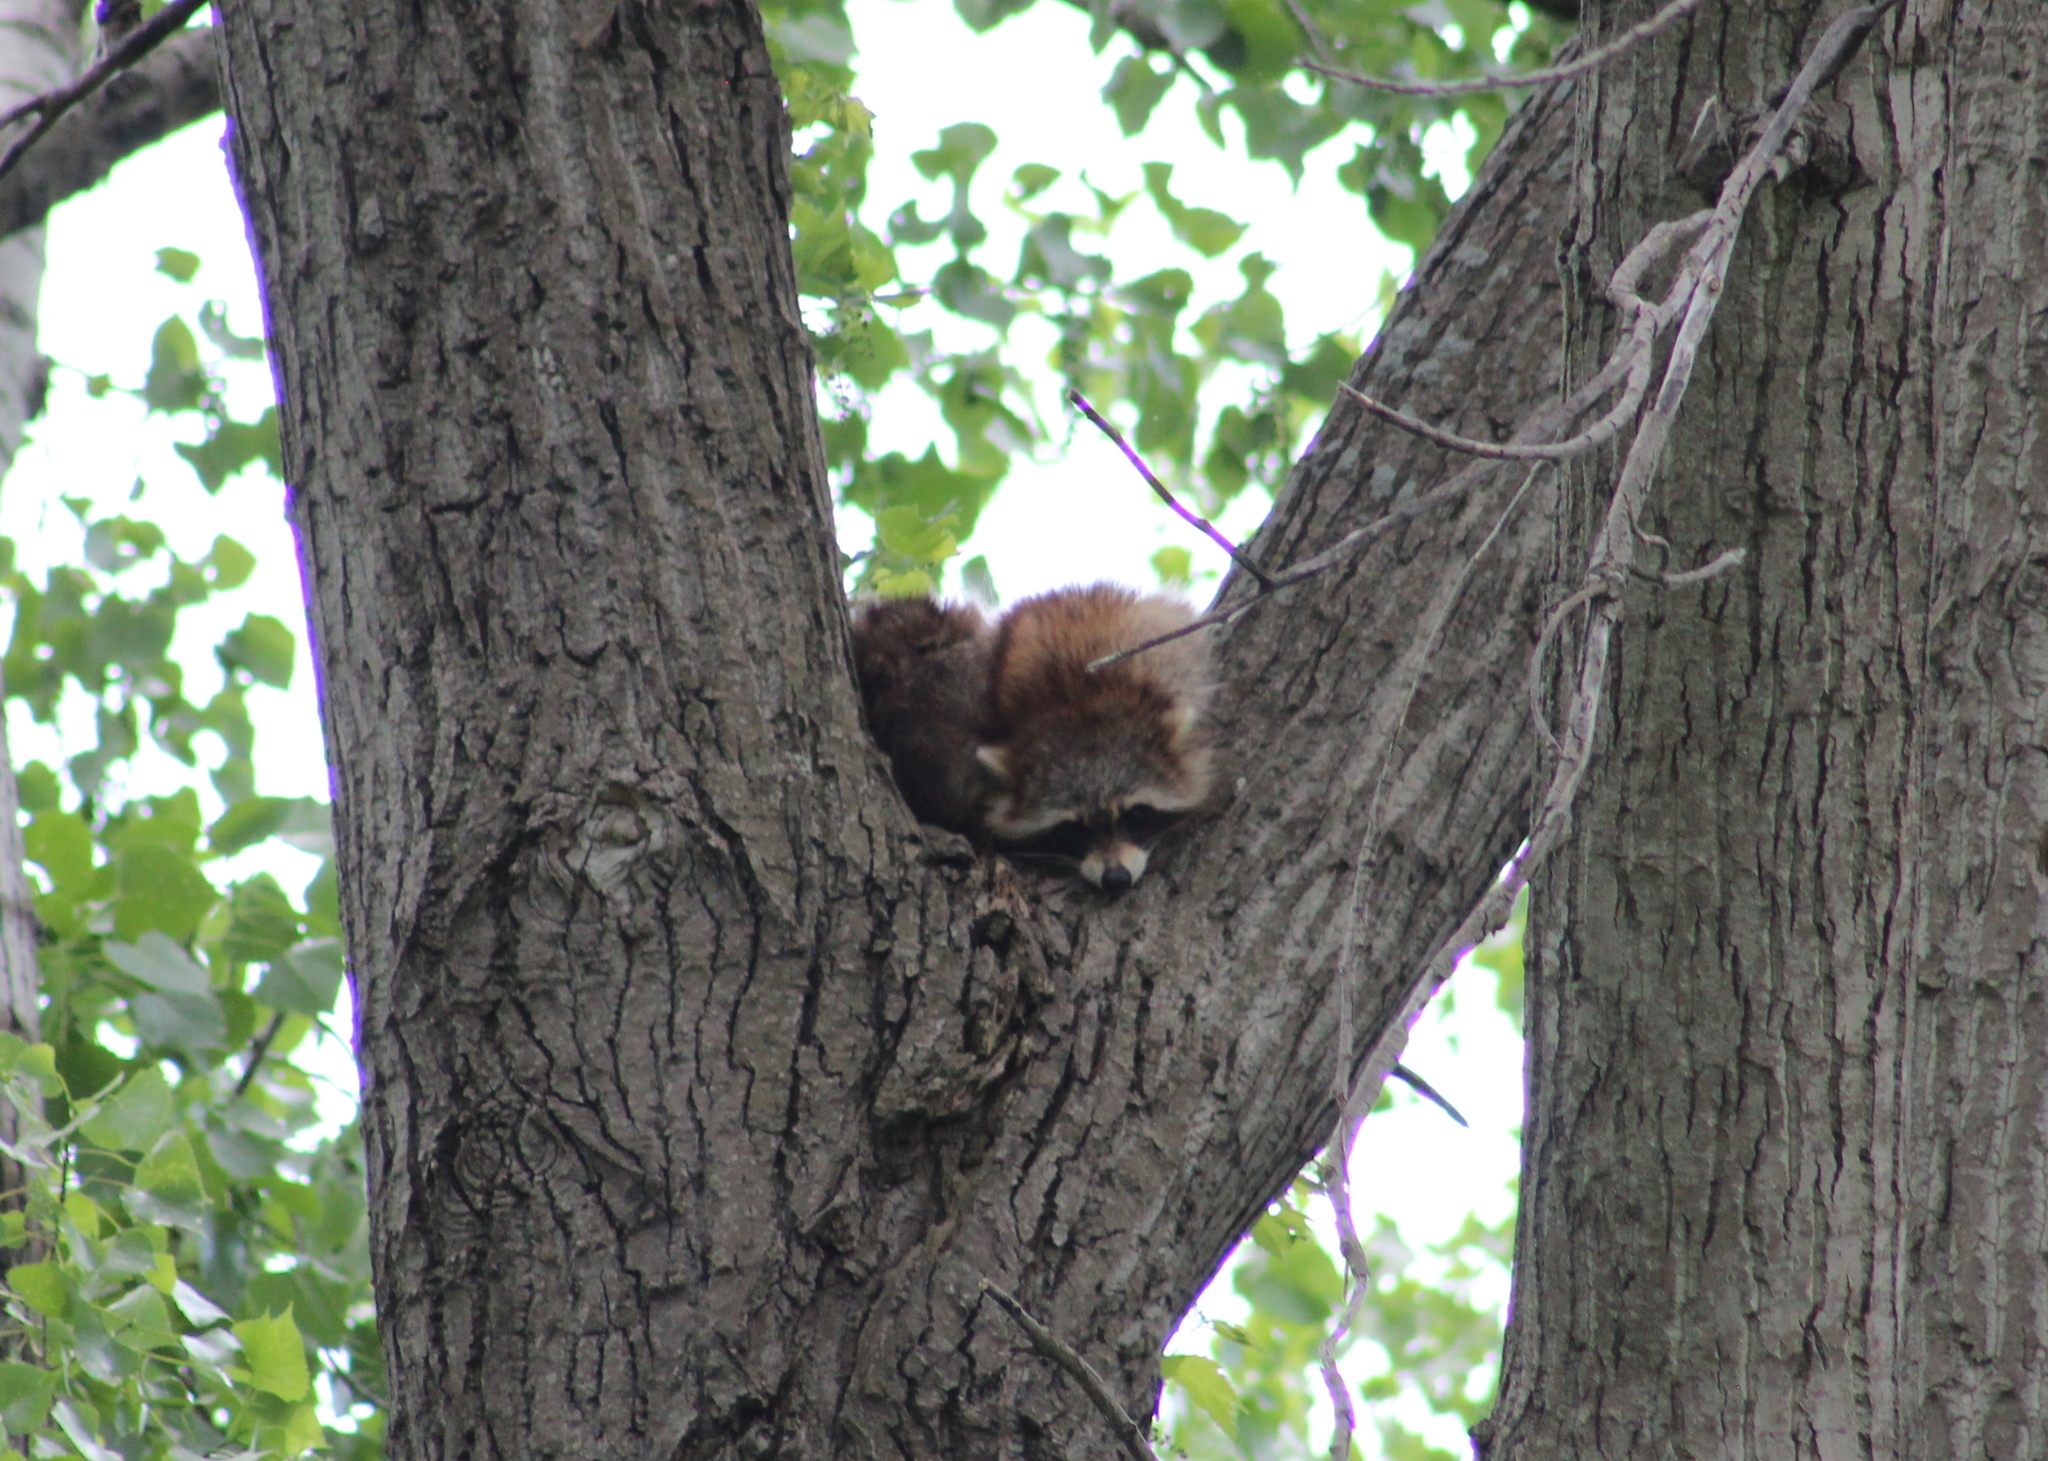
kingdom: Animalia
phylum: Chordata
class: Mammalia
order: Carnivora
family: Procyonidae
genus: Procyon
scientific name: Procyon lotor
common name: Raccoon
